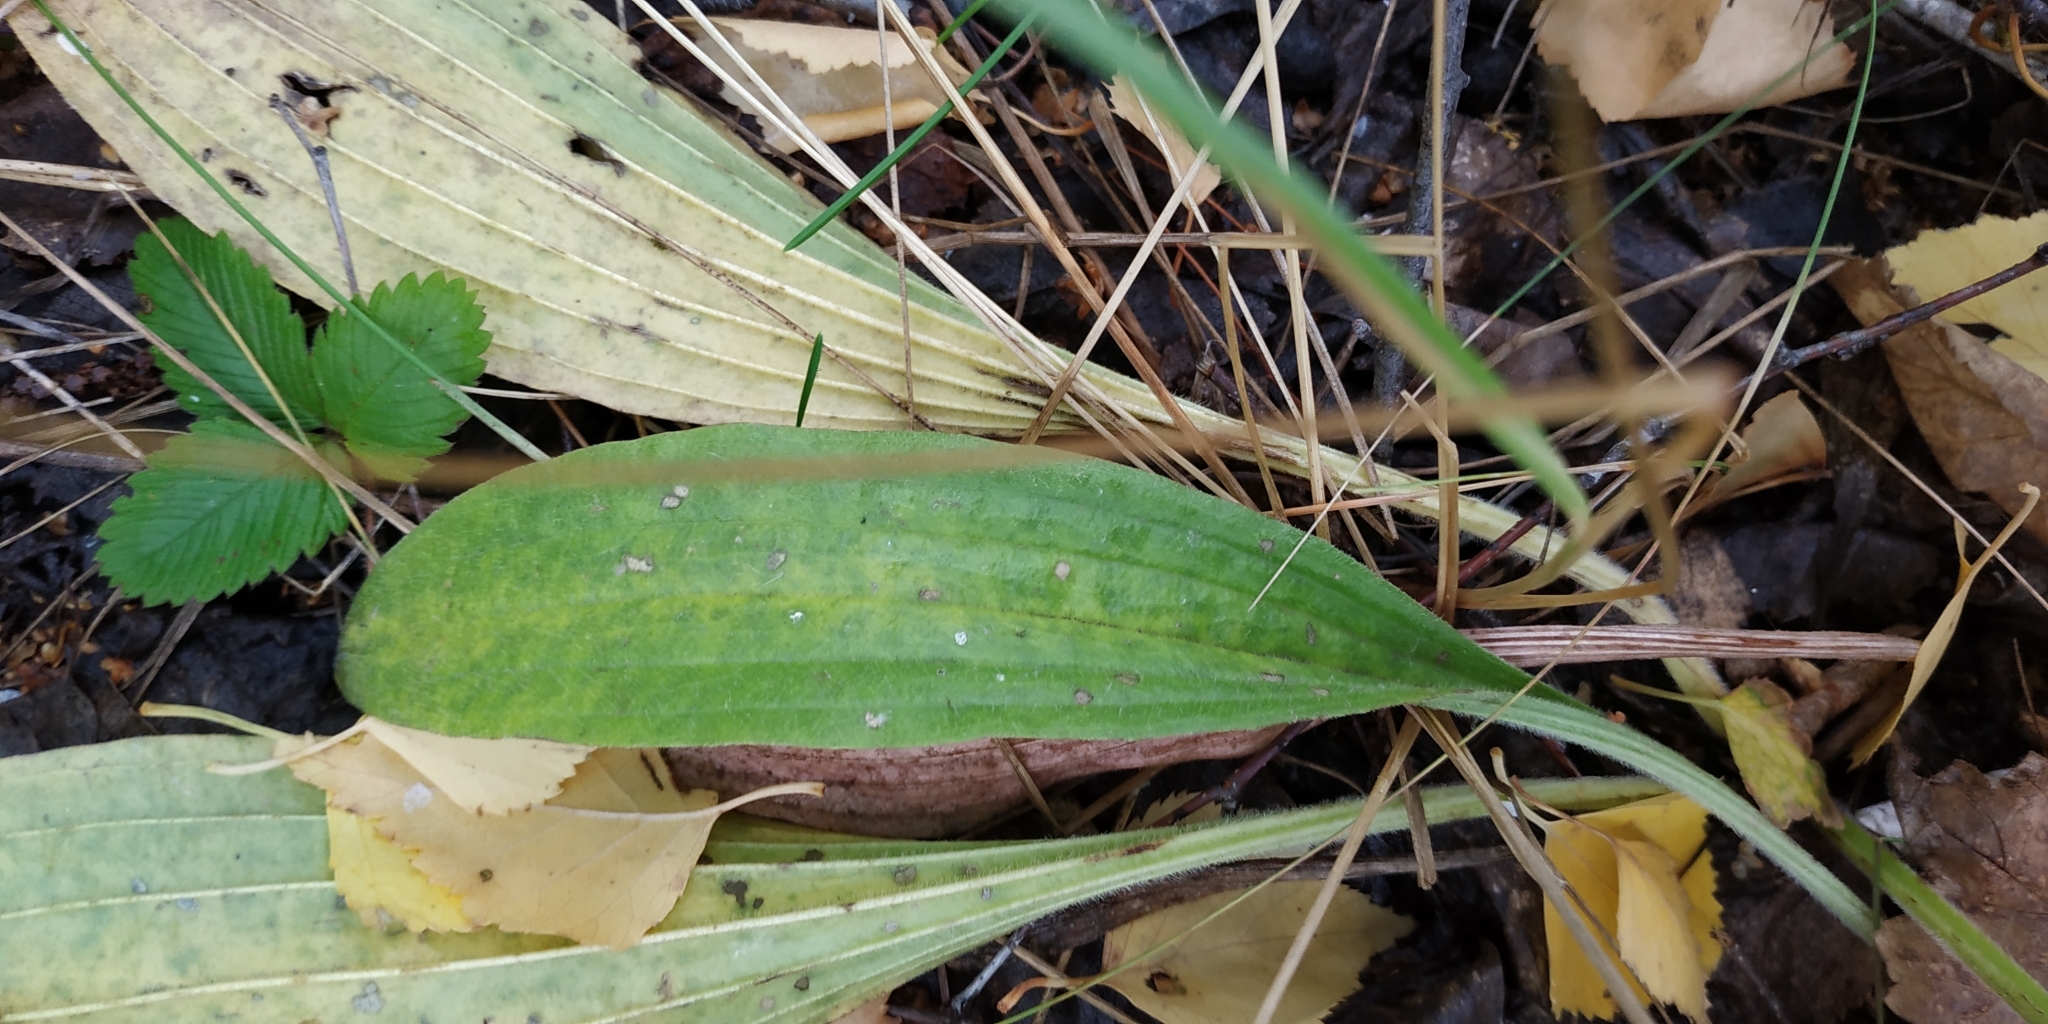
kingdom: Plantae
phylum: Tracheophyta
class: Magnoliopsida
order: Lamiales
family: Plantaginaceae
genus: Plantago
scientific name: Plantago media
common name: Hoary plantain
